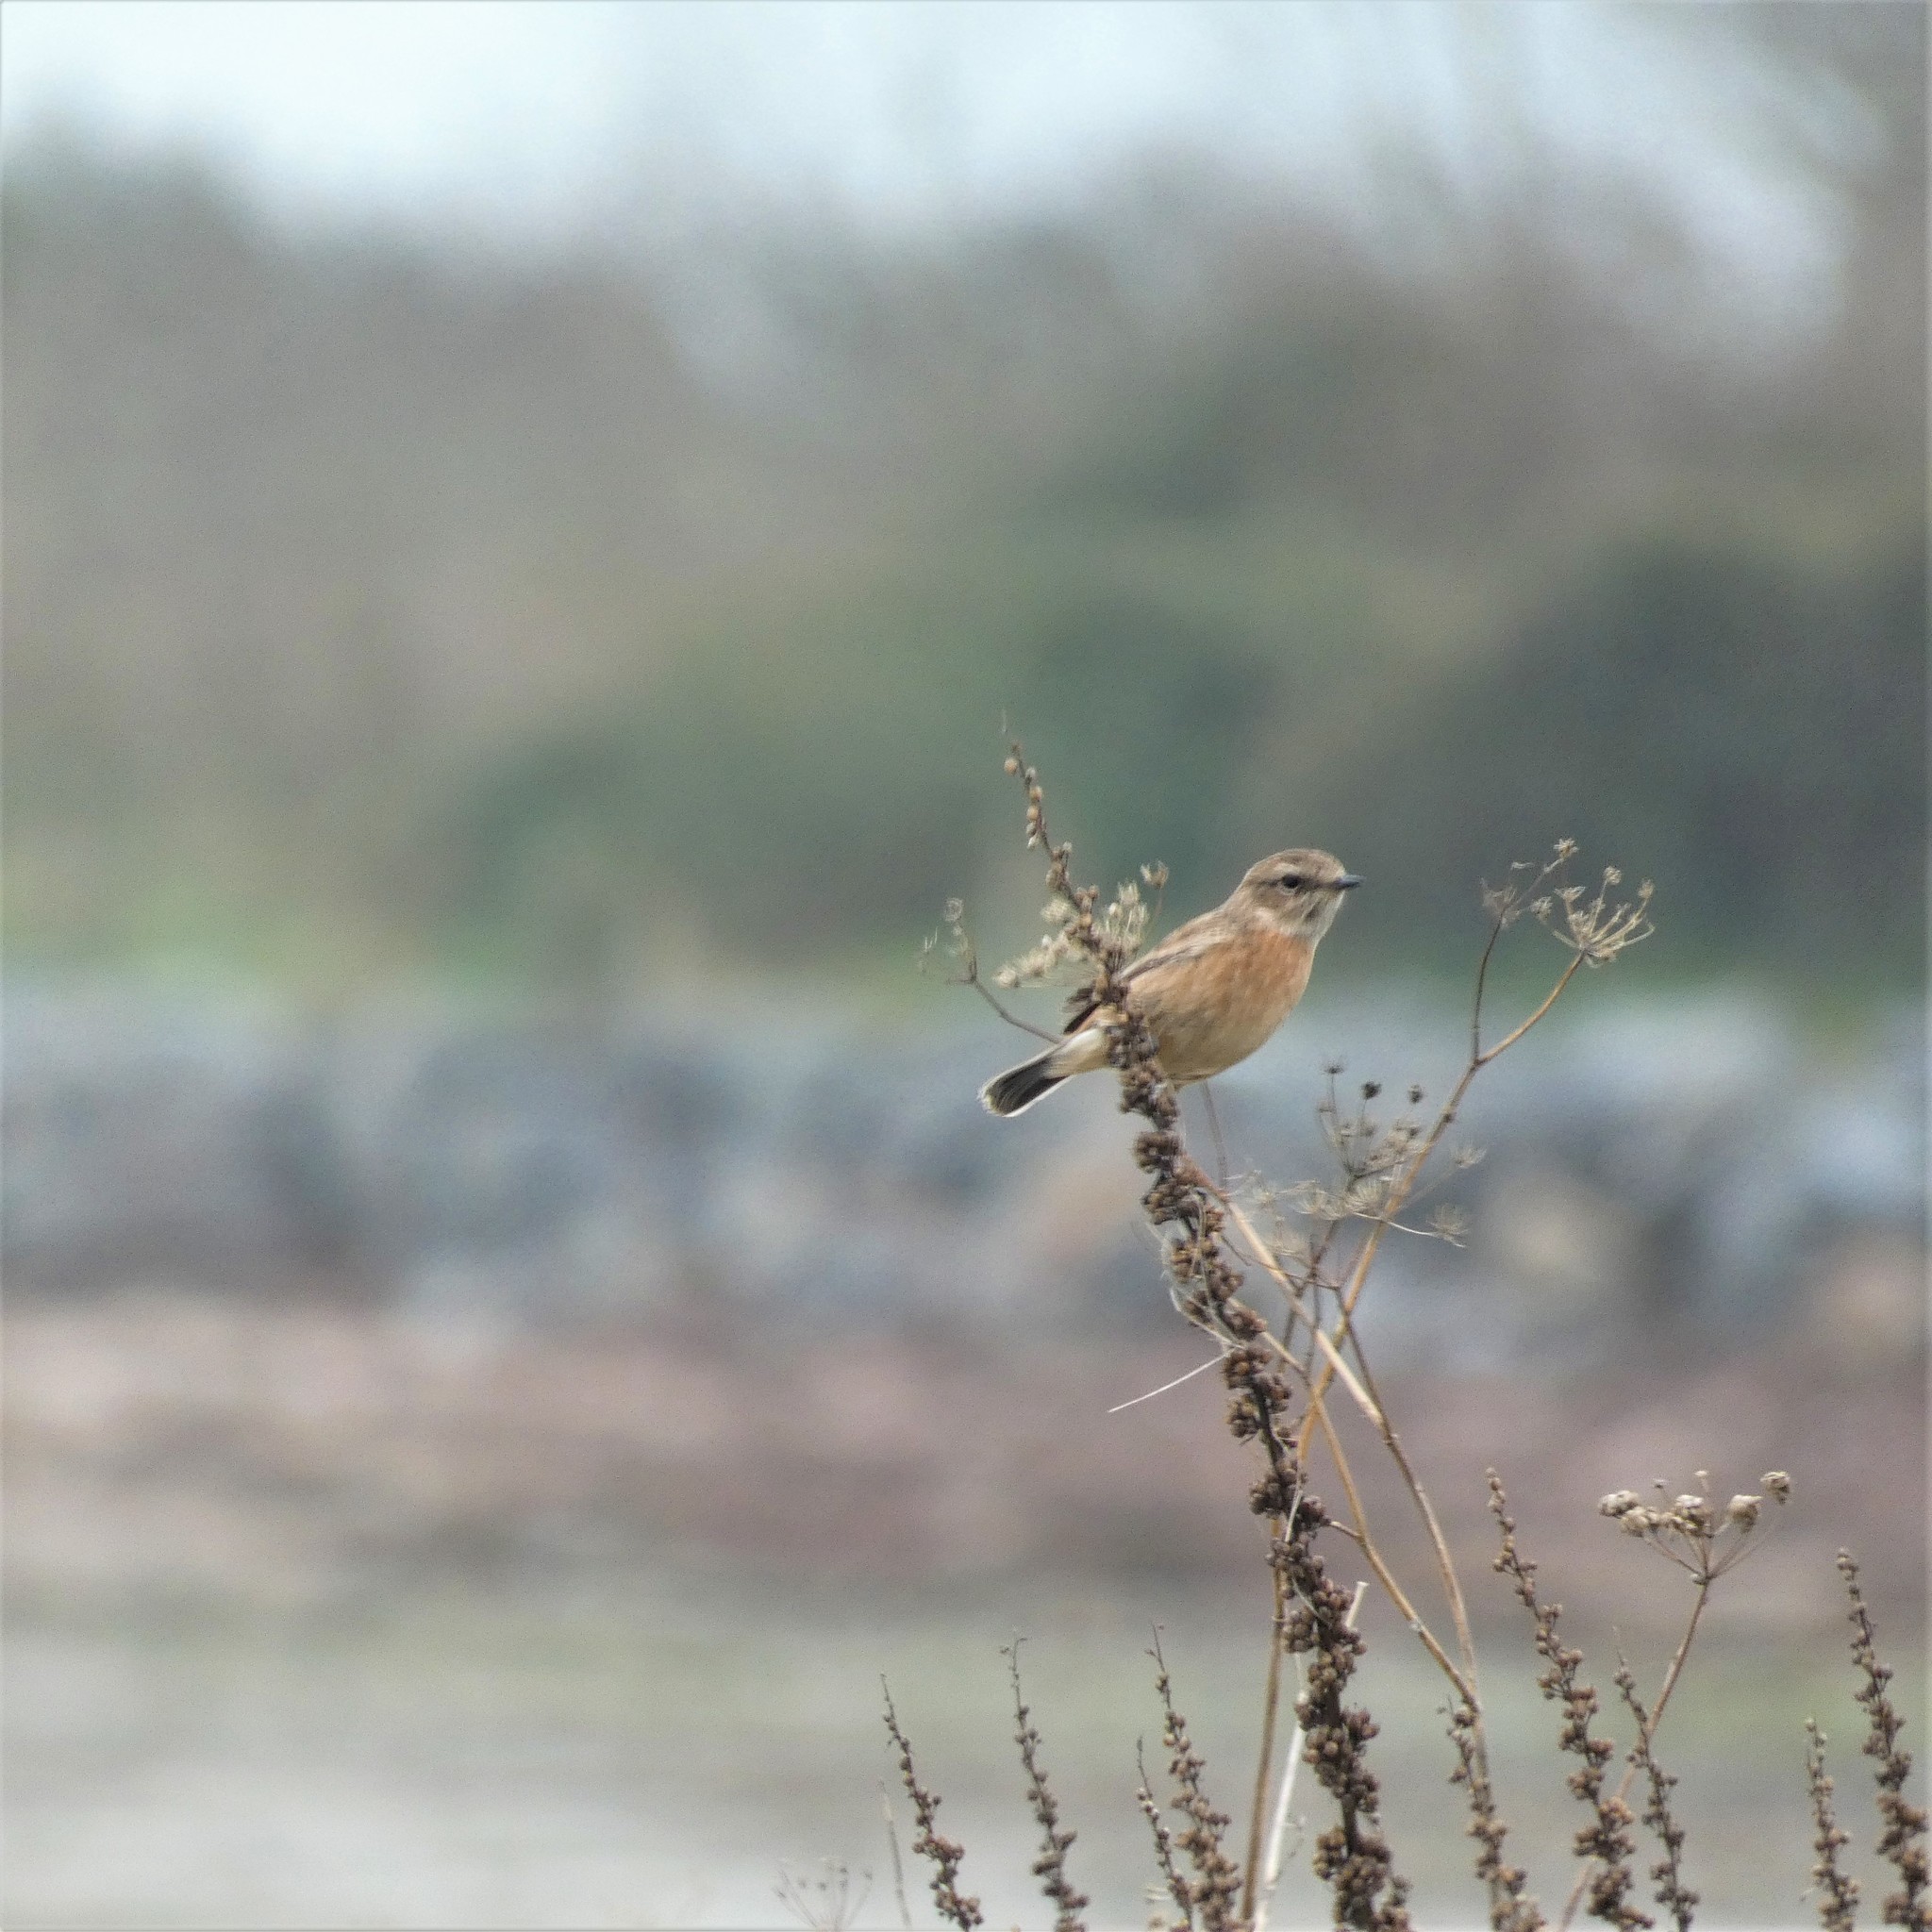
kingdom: Animalia
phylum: Chordata
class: Aves
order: Passeriformes
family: Muscicapidae
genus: Saxicola
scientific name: Saxicola rubicola
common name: European stonechat
